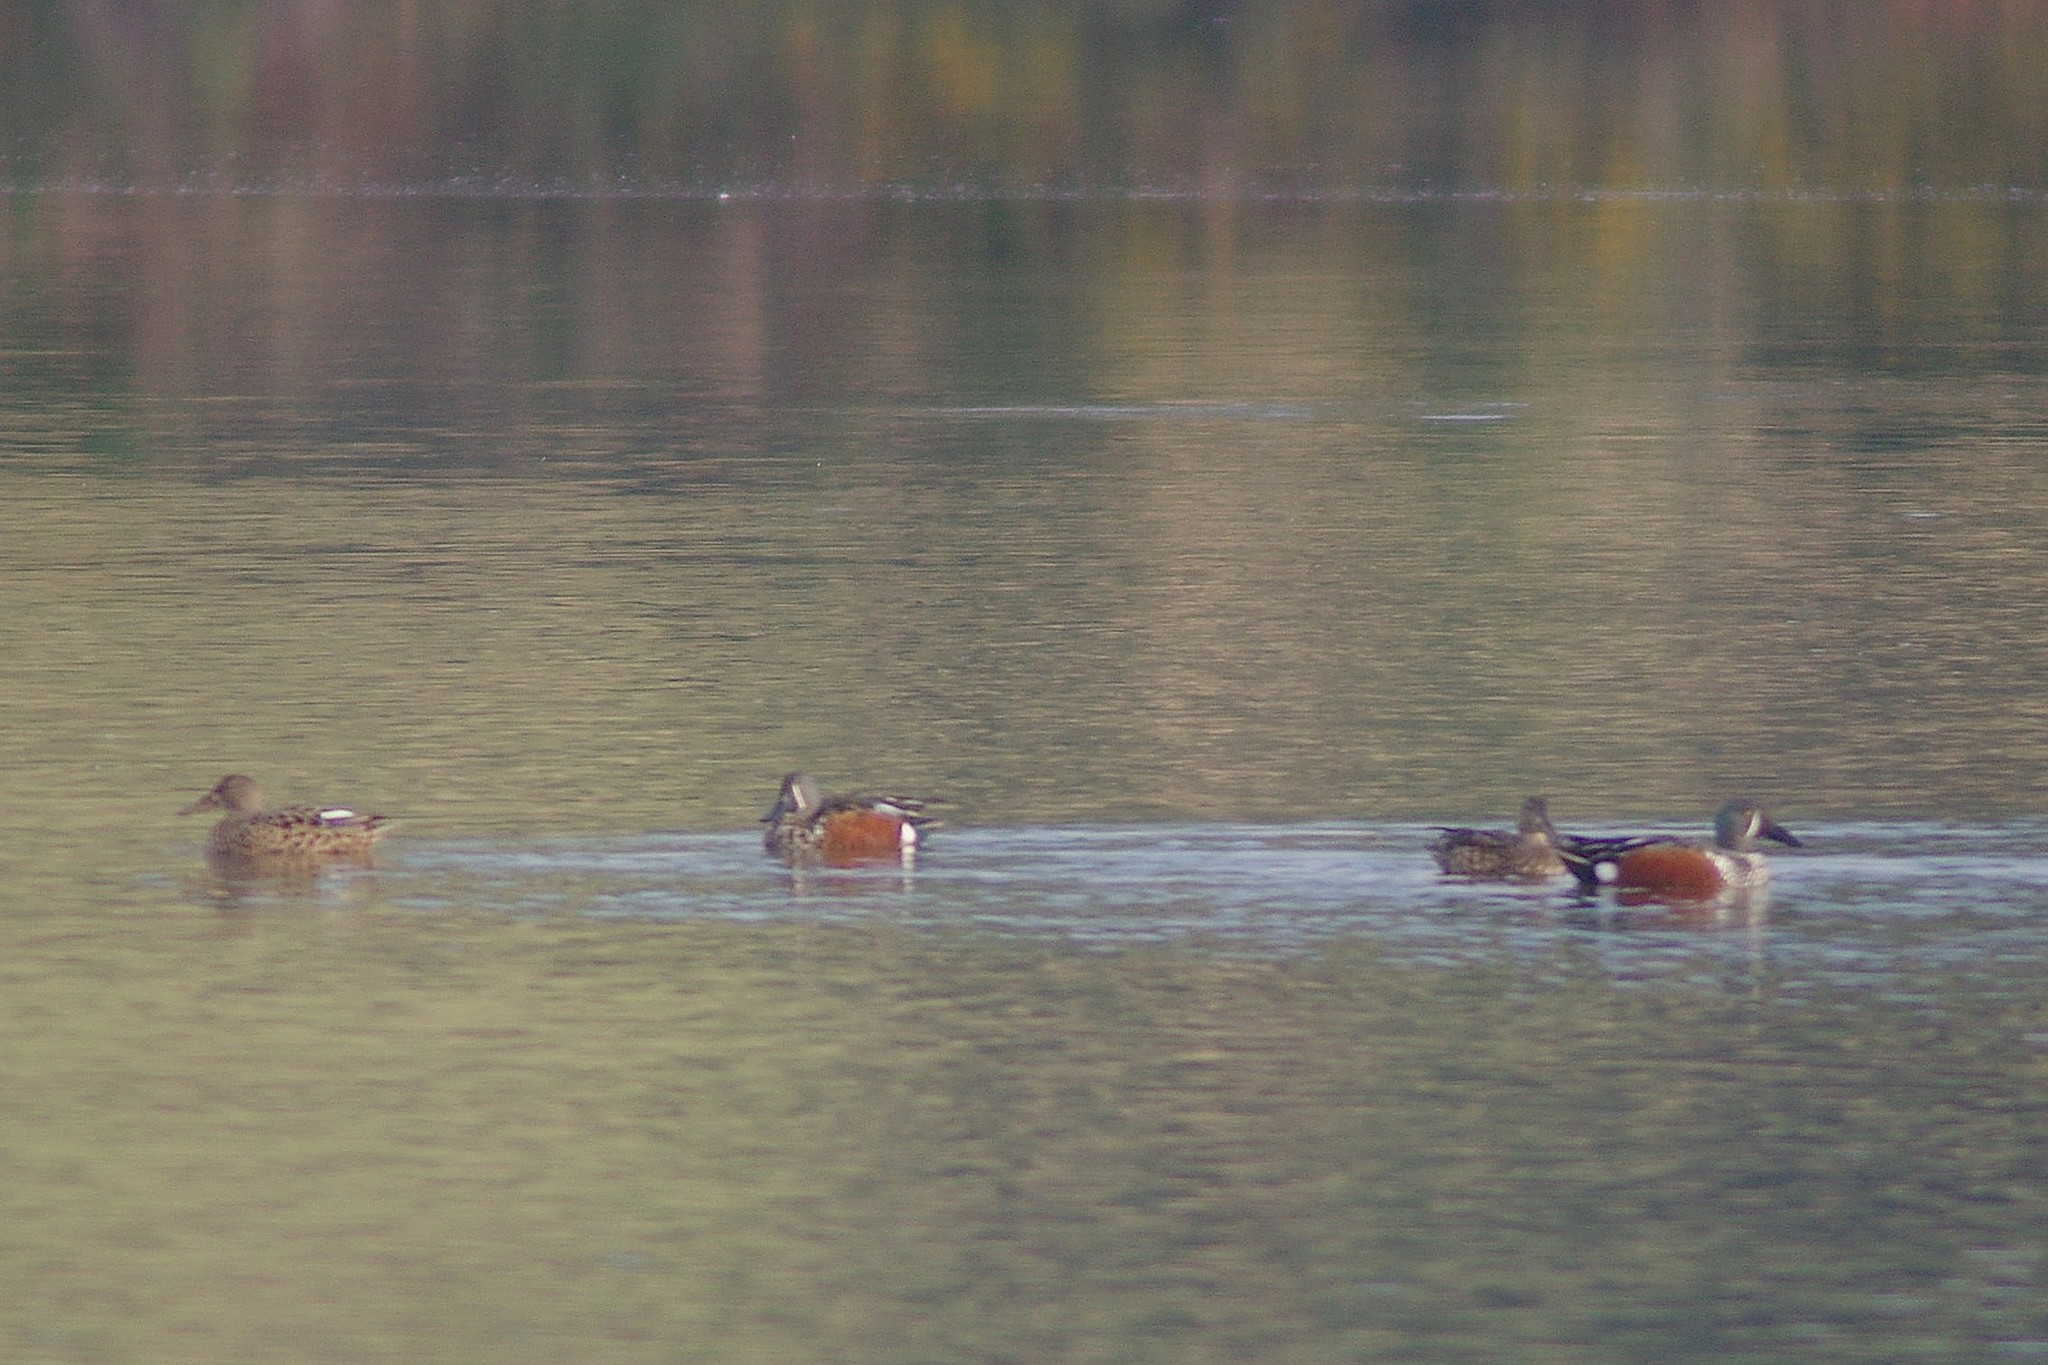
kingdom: Animalia
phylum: Chordata
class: Aves
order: Anseriformes
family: Anatidae
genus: Spatula
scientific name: Spatula rhynchotis
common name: Australian shoveler
